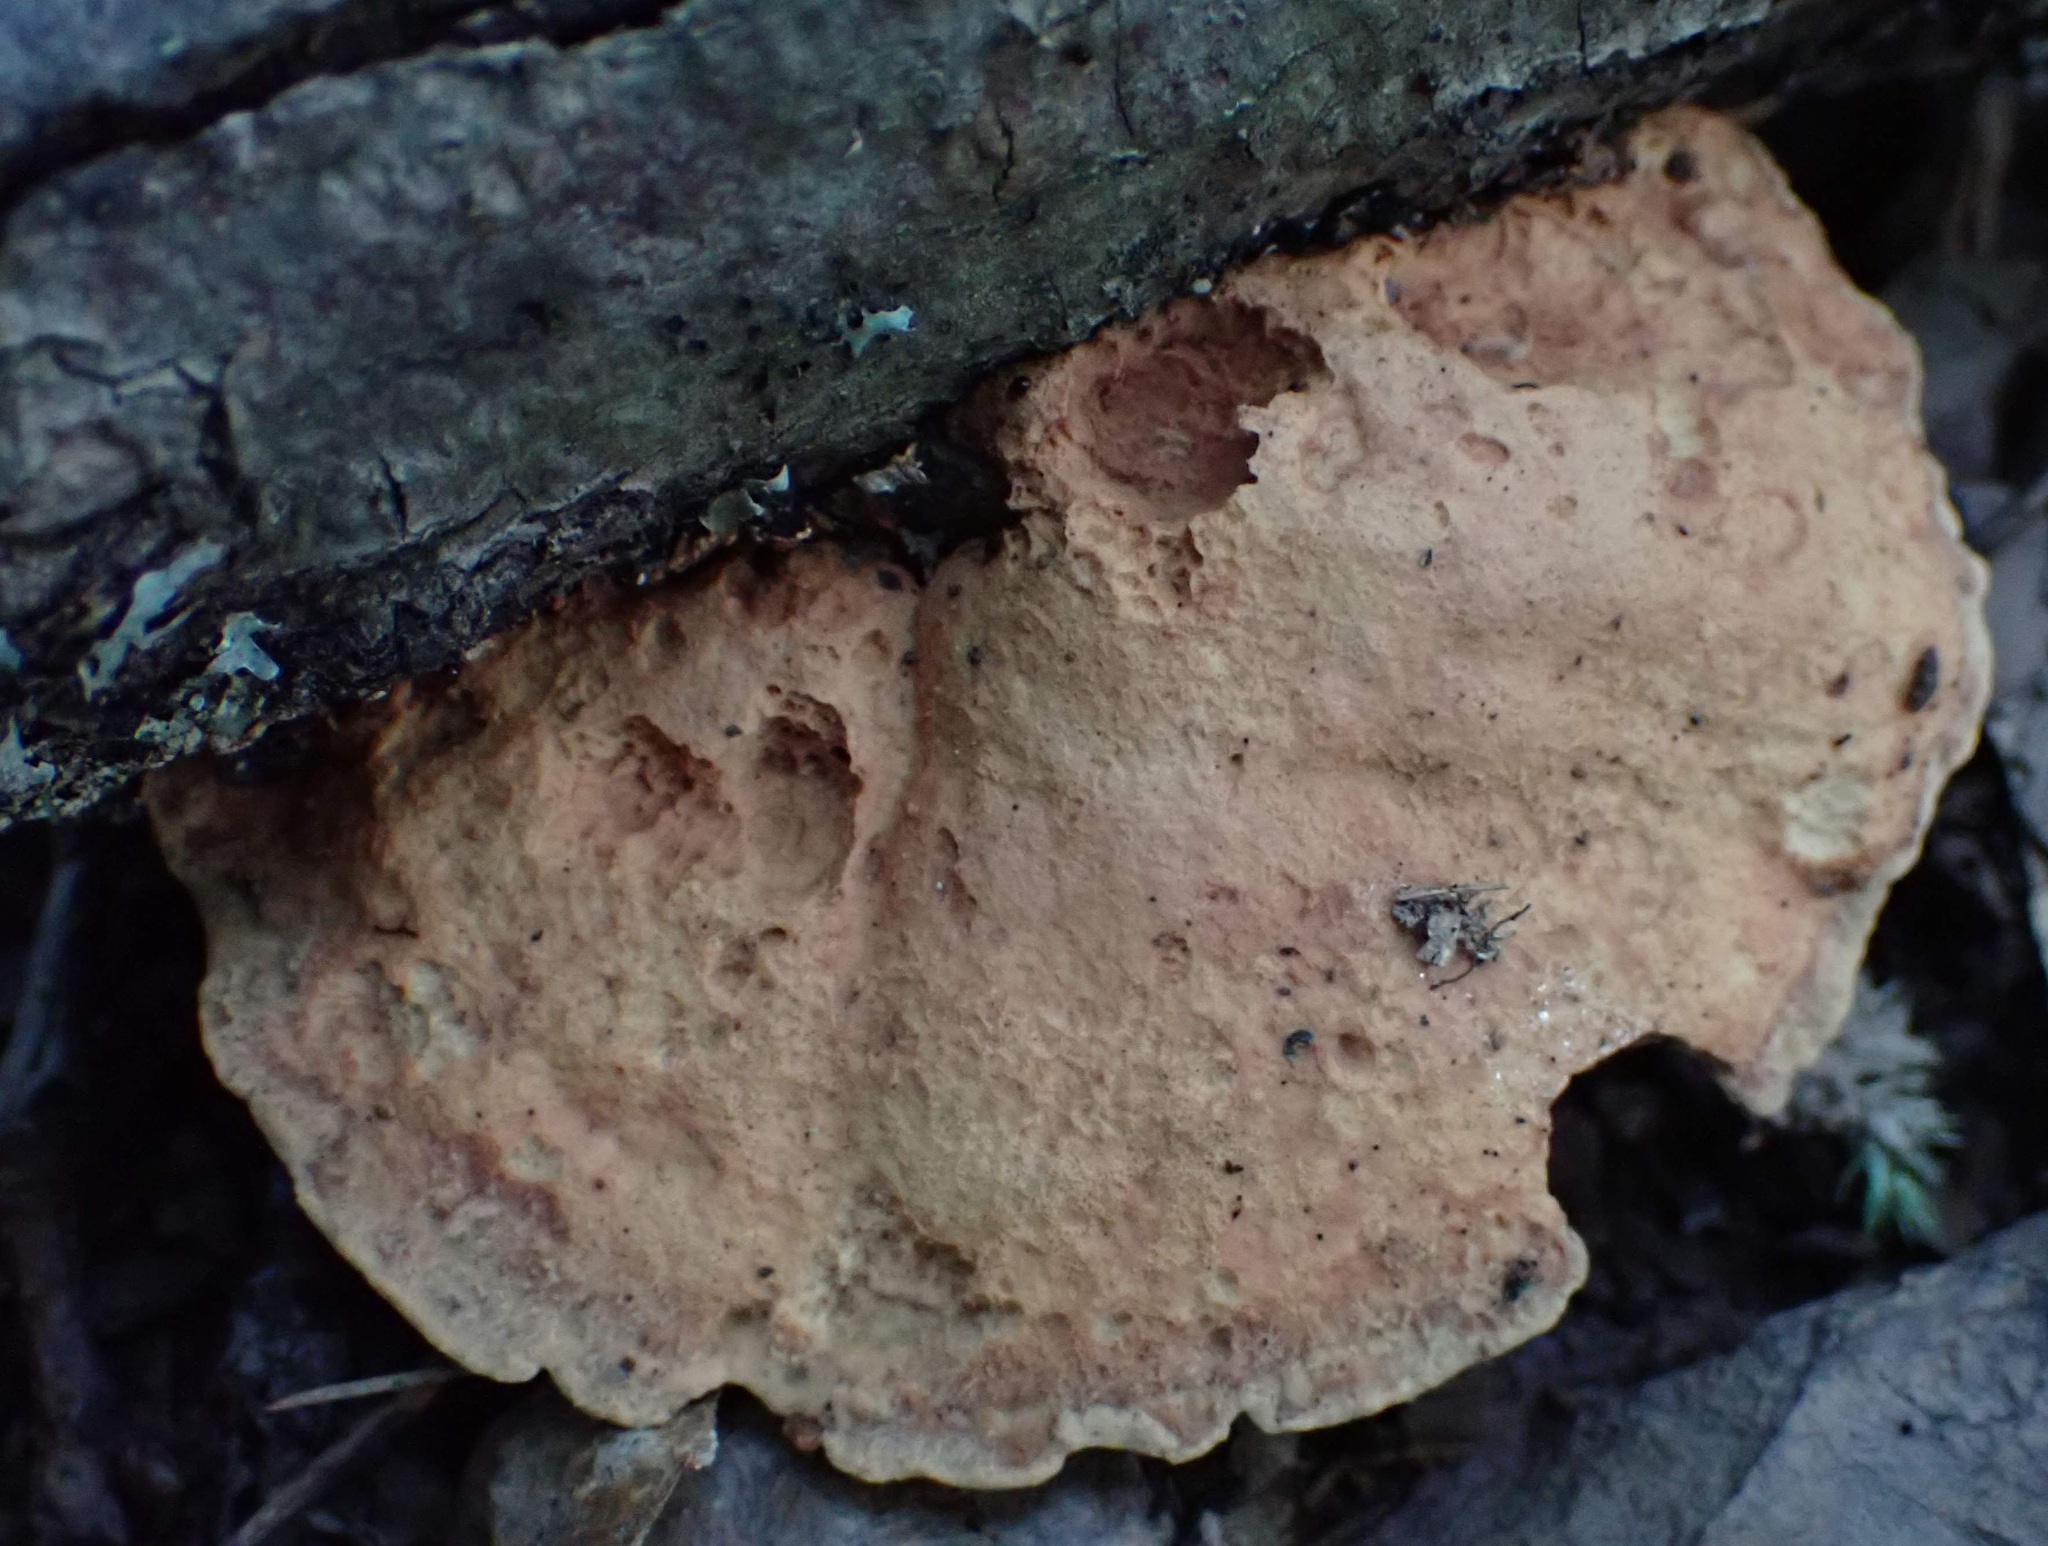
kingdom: Fungi
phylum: Basidiomycota
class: Agaricomycetes
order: Polyporales
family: Phanerochaetaceae
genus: Hapalopilus
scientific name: Hapalopilus rutilans
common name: Tender nesting polypore
